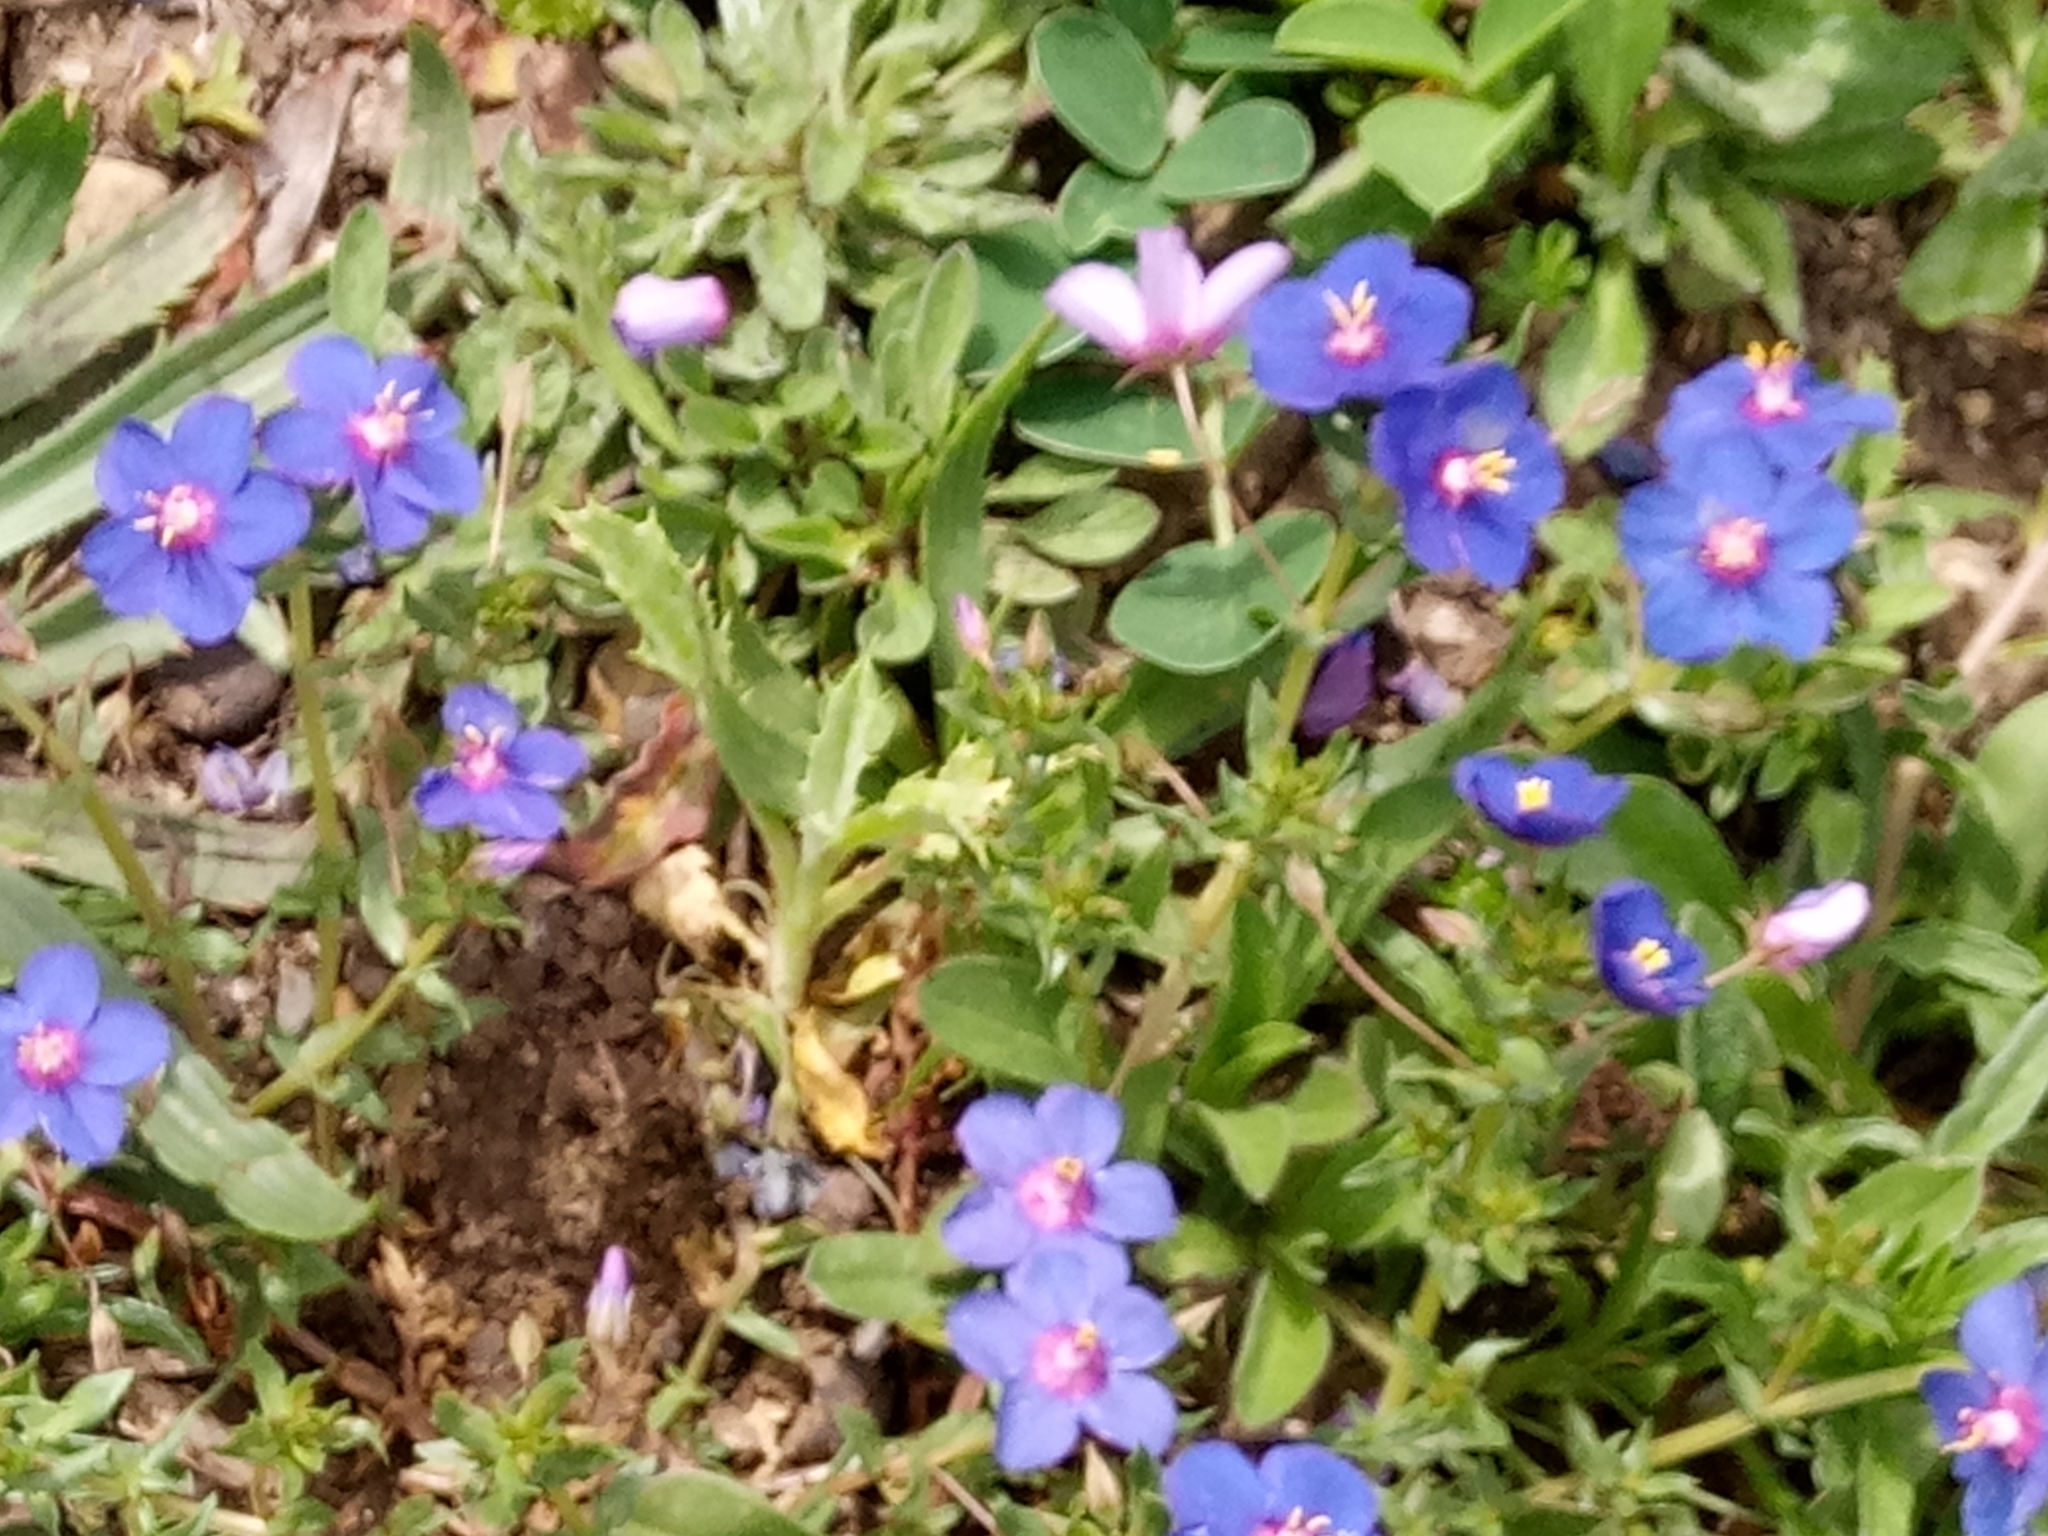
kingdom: Plantae
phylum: Tracheophyta
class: Magnoliopsida
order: Ericales
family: Primulaceae
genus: Lysimachia
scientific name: Lysimachia loeflingii
